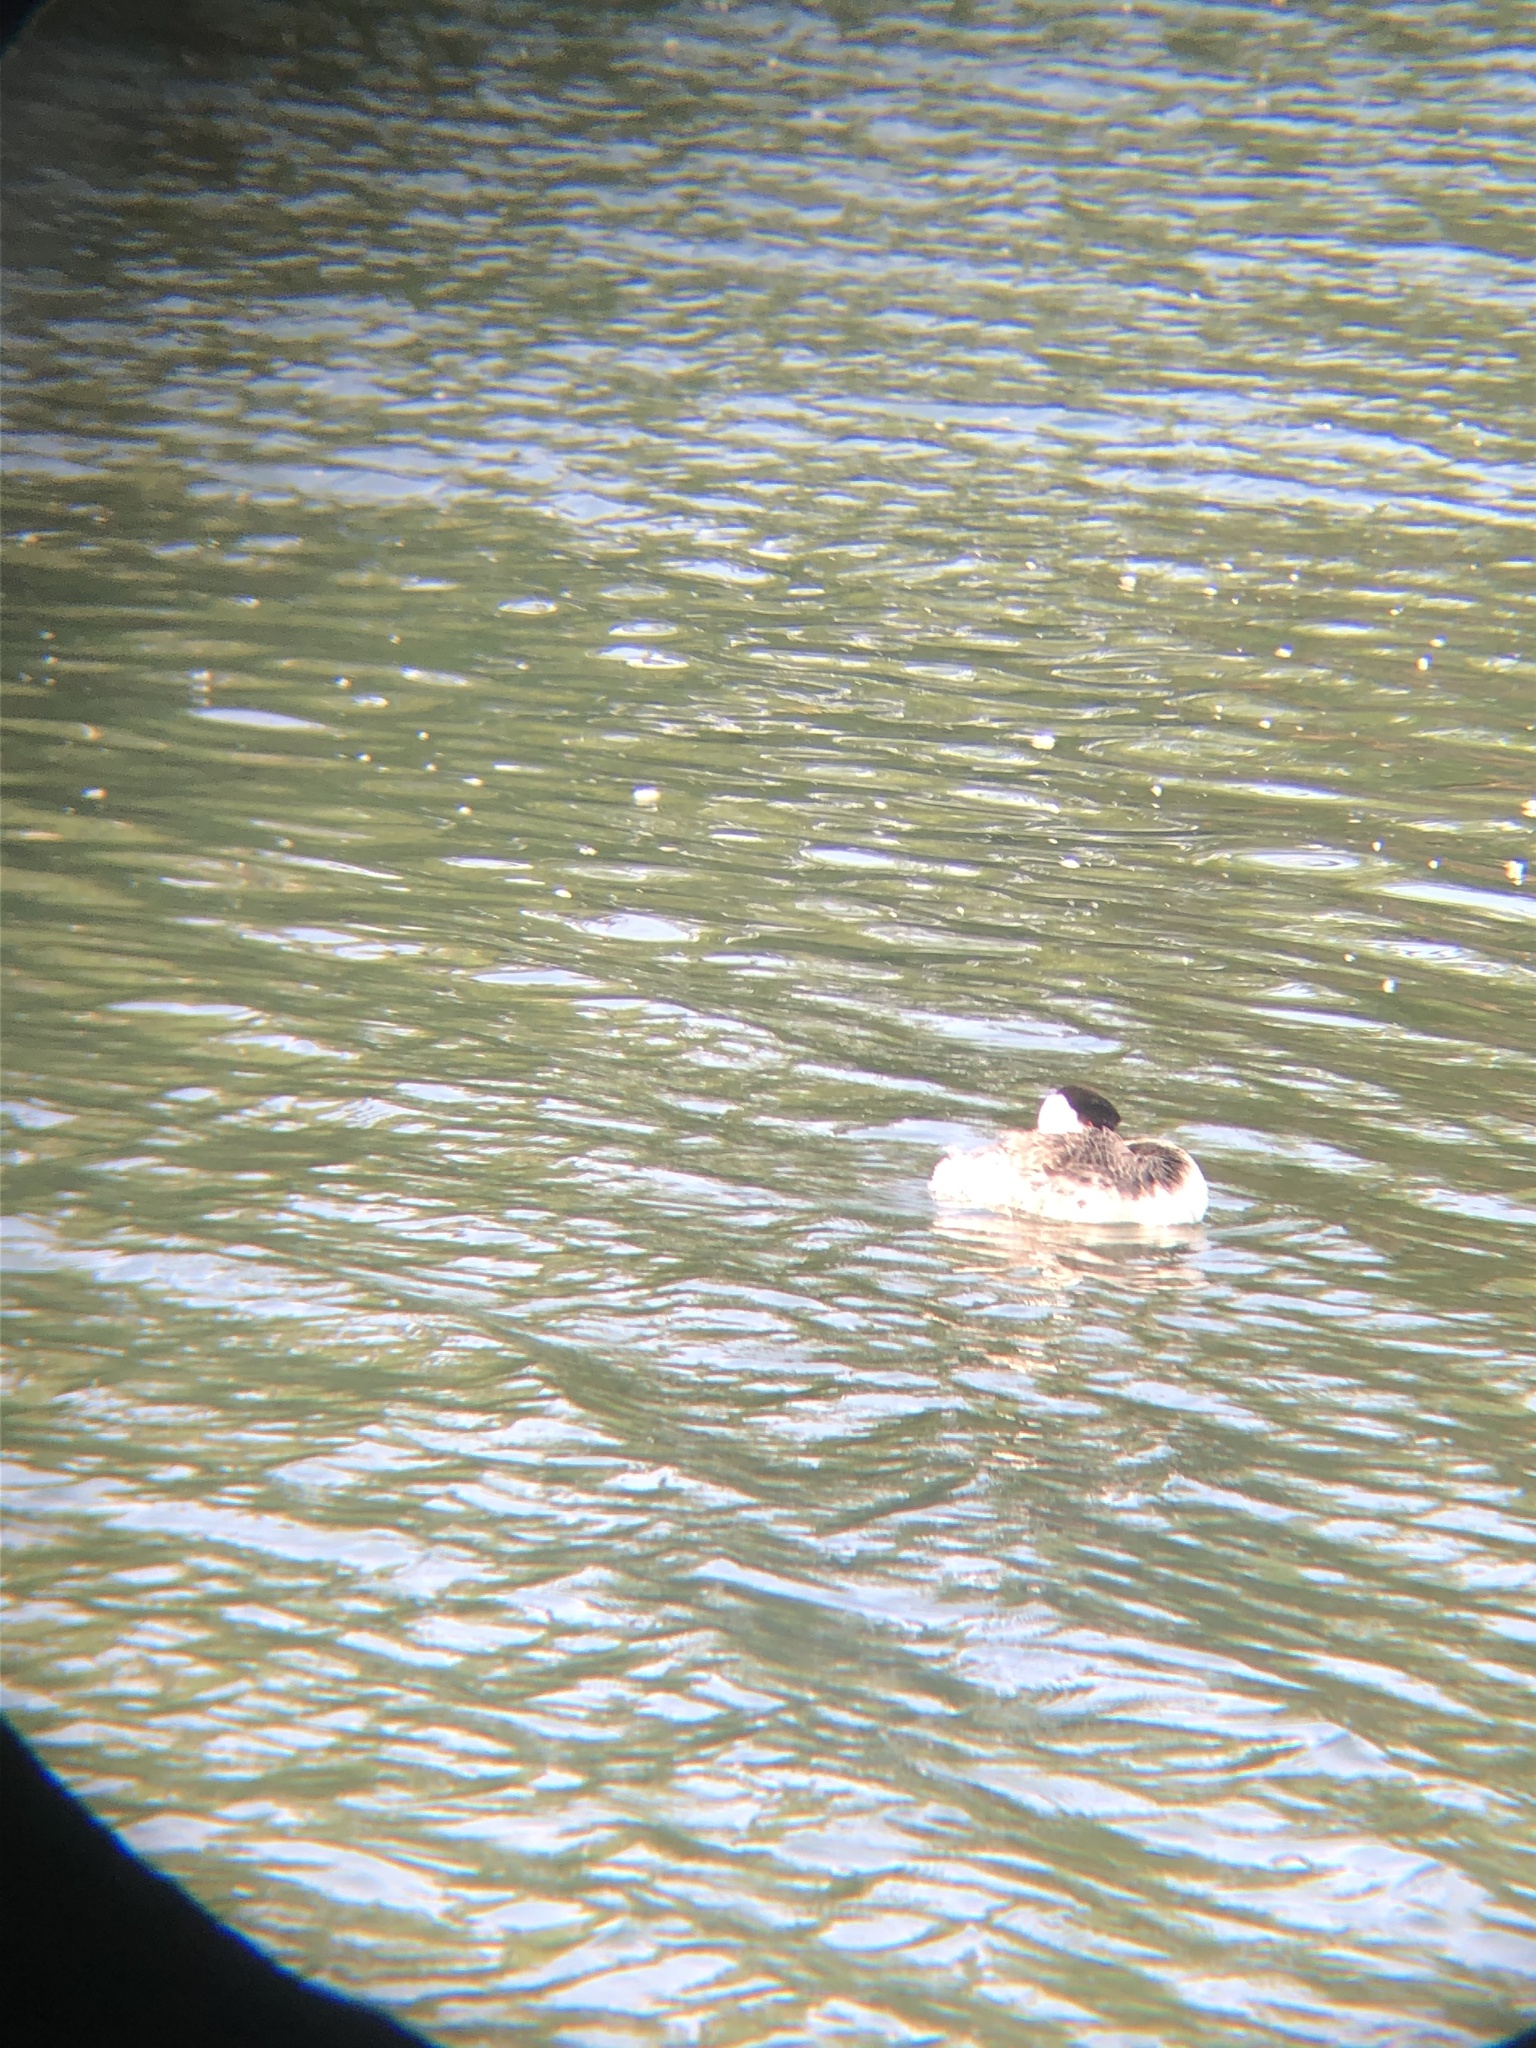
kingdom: Animalia
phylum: Chordata
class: Aves
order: Podicipediformes
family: Podicipedidae
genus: Aechmophorus
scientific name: Aechmophorus occidentalis
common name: Western grebe
